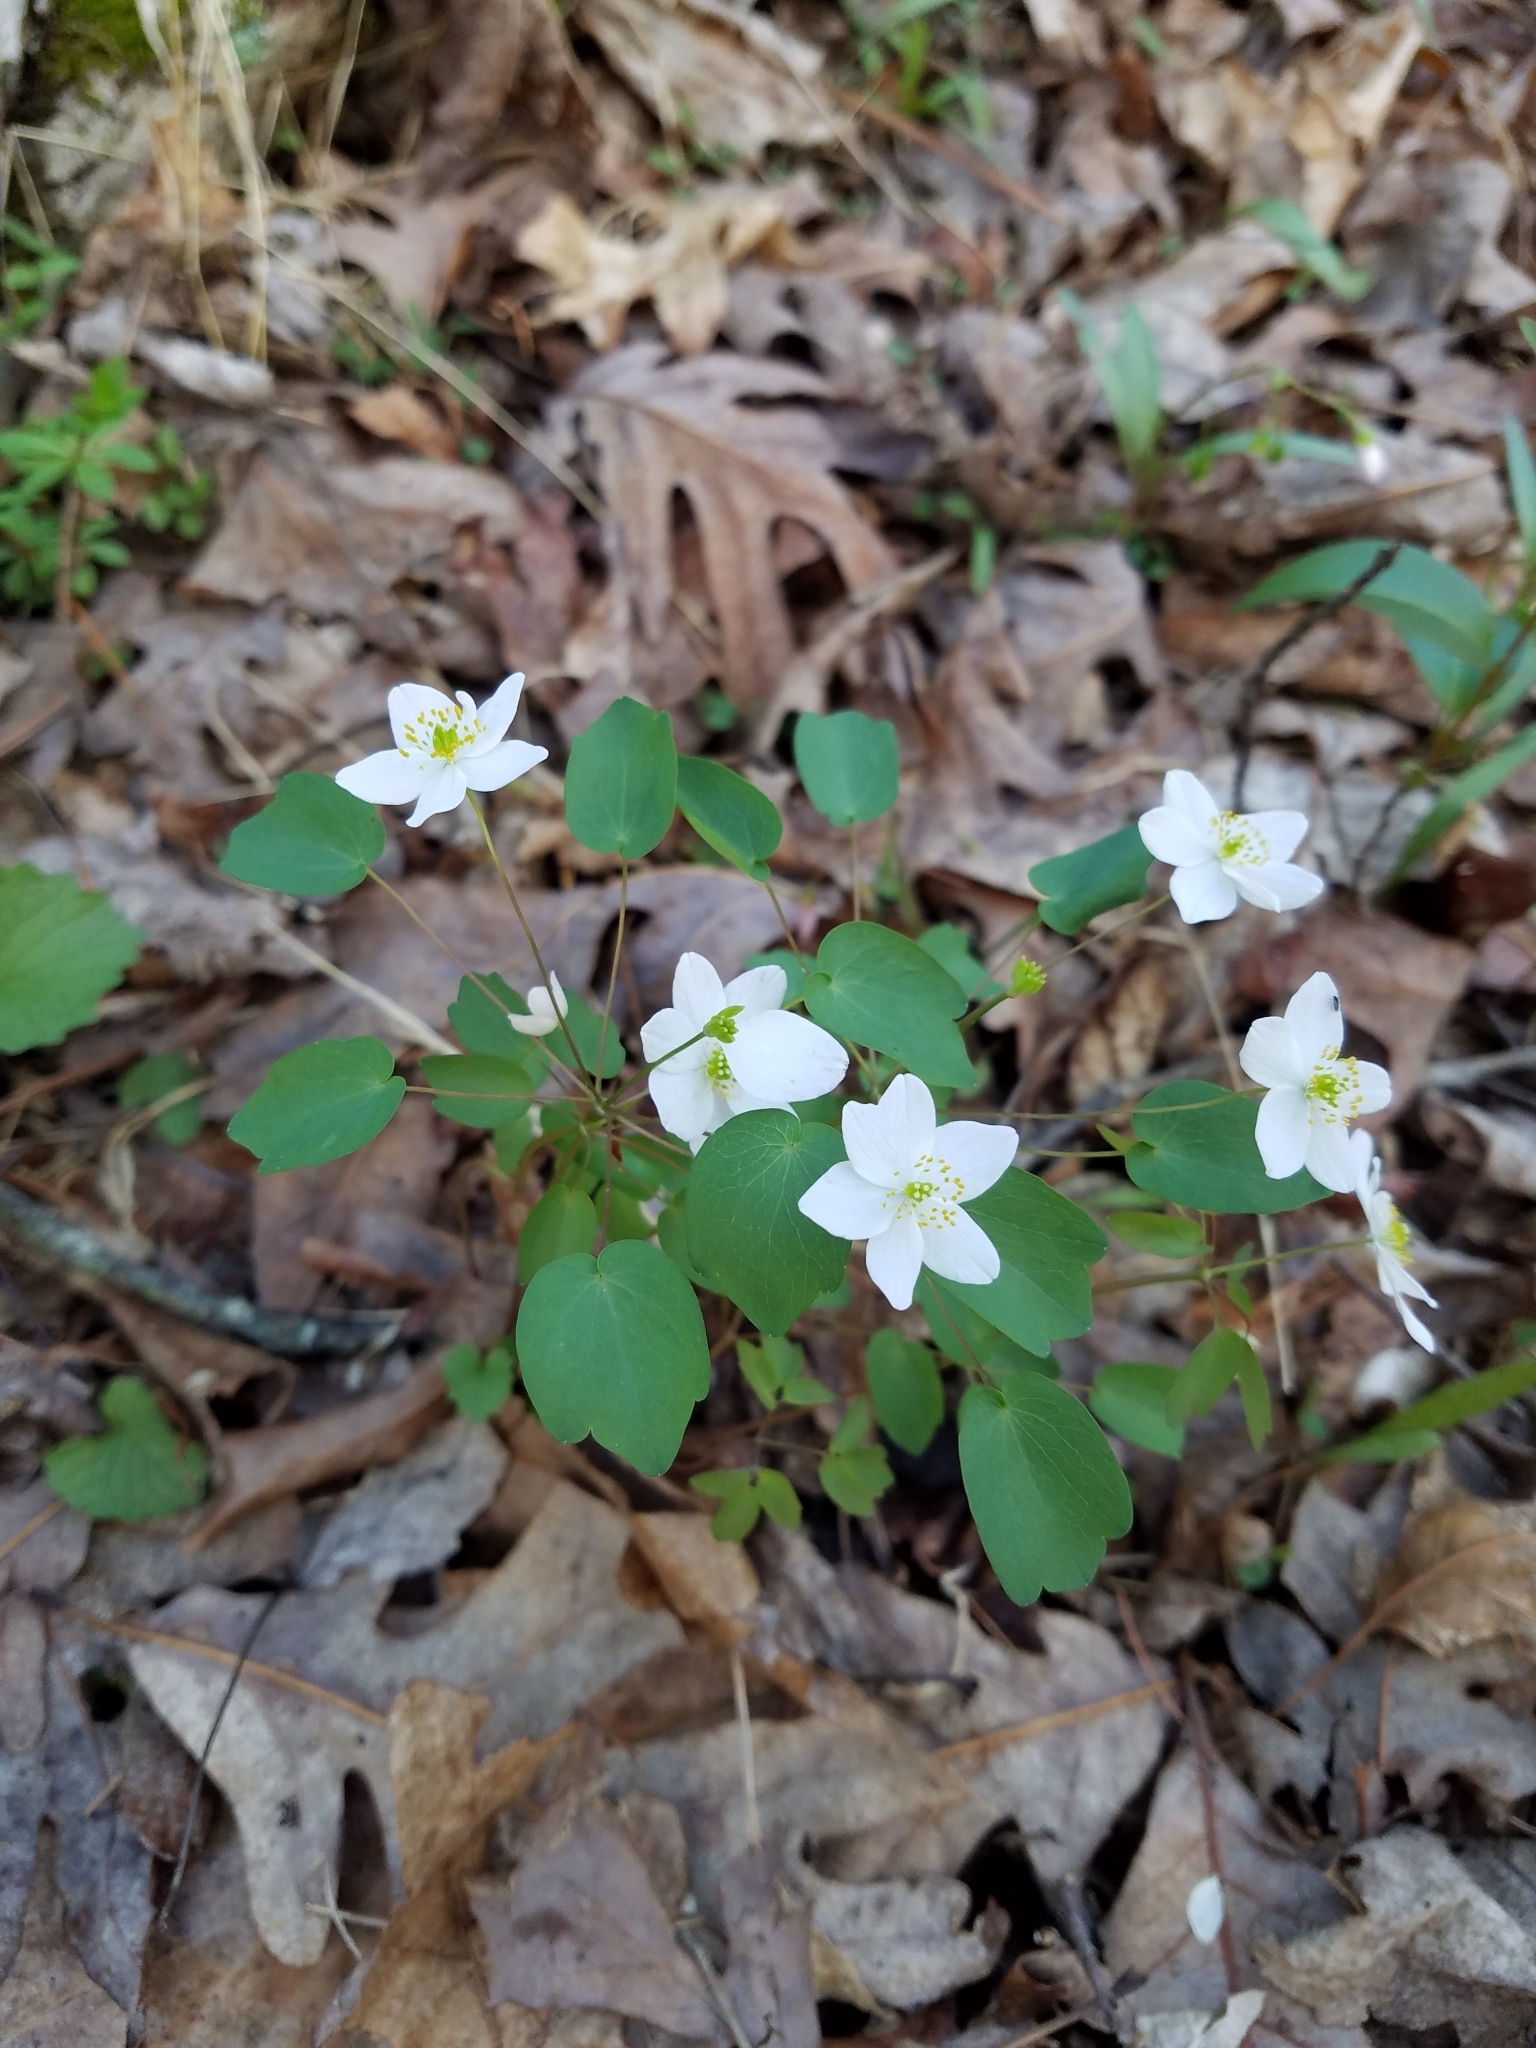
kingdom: Plantae
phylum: Tracheophyta
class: Magnoliopsida
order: Ranunculales
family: Ranunculaceae
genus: Thalictrum
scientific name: Thalictrum thalictroides
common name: Rue-anemone
